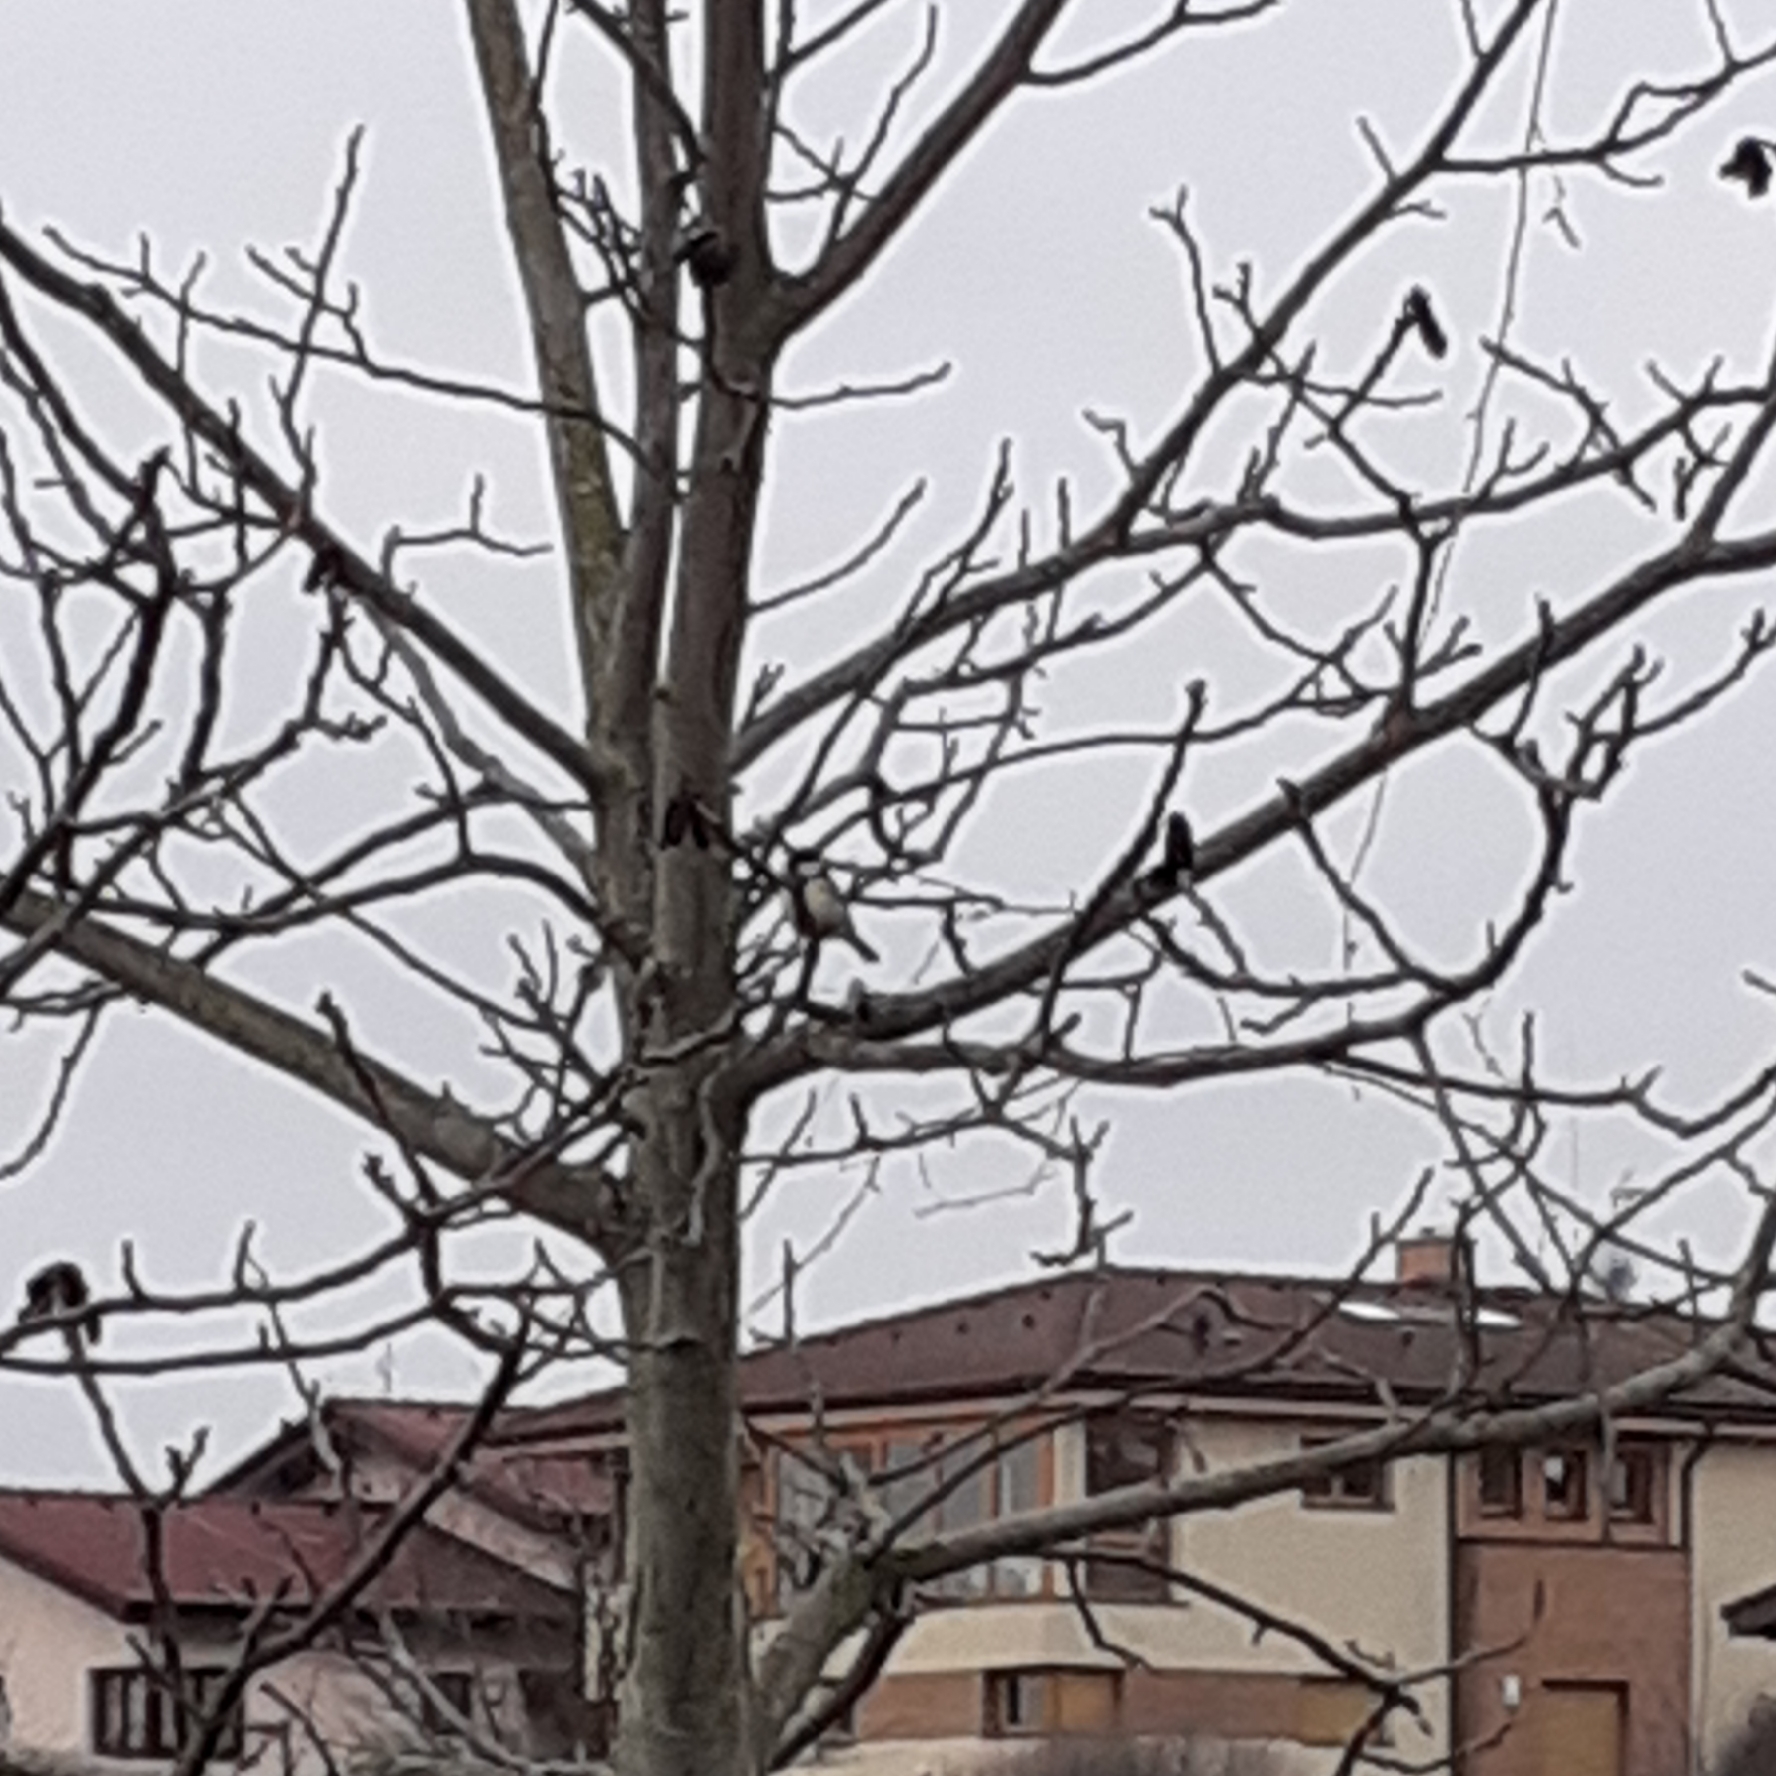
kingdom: Animalia
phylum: Chordata
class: Aves
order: Passeriformes
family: Paridae
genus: Parus
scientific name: Parus major
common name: Great tit
